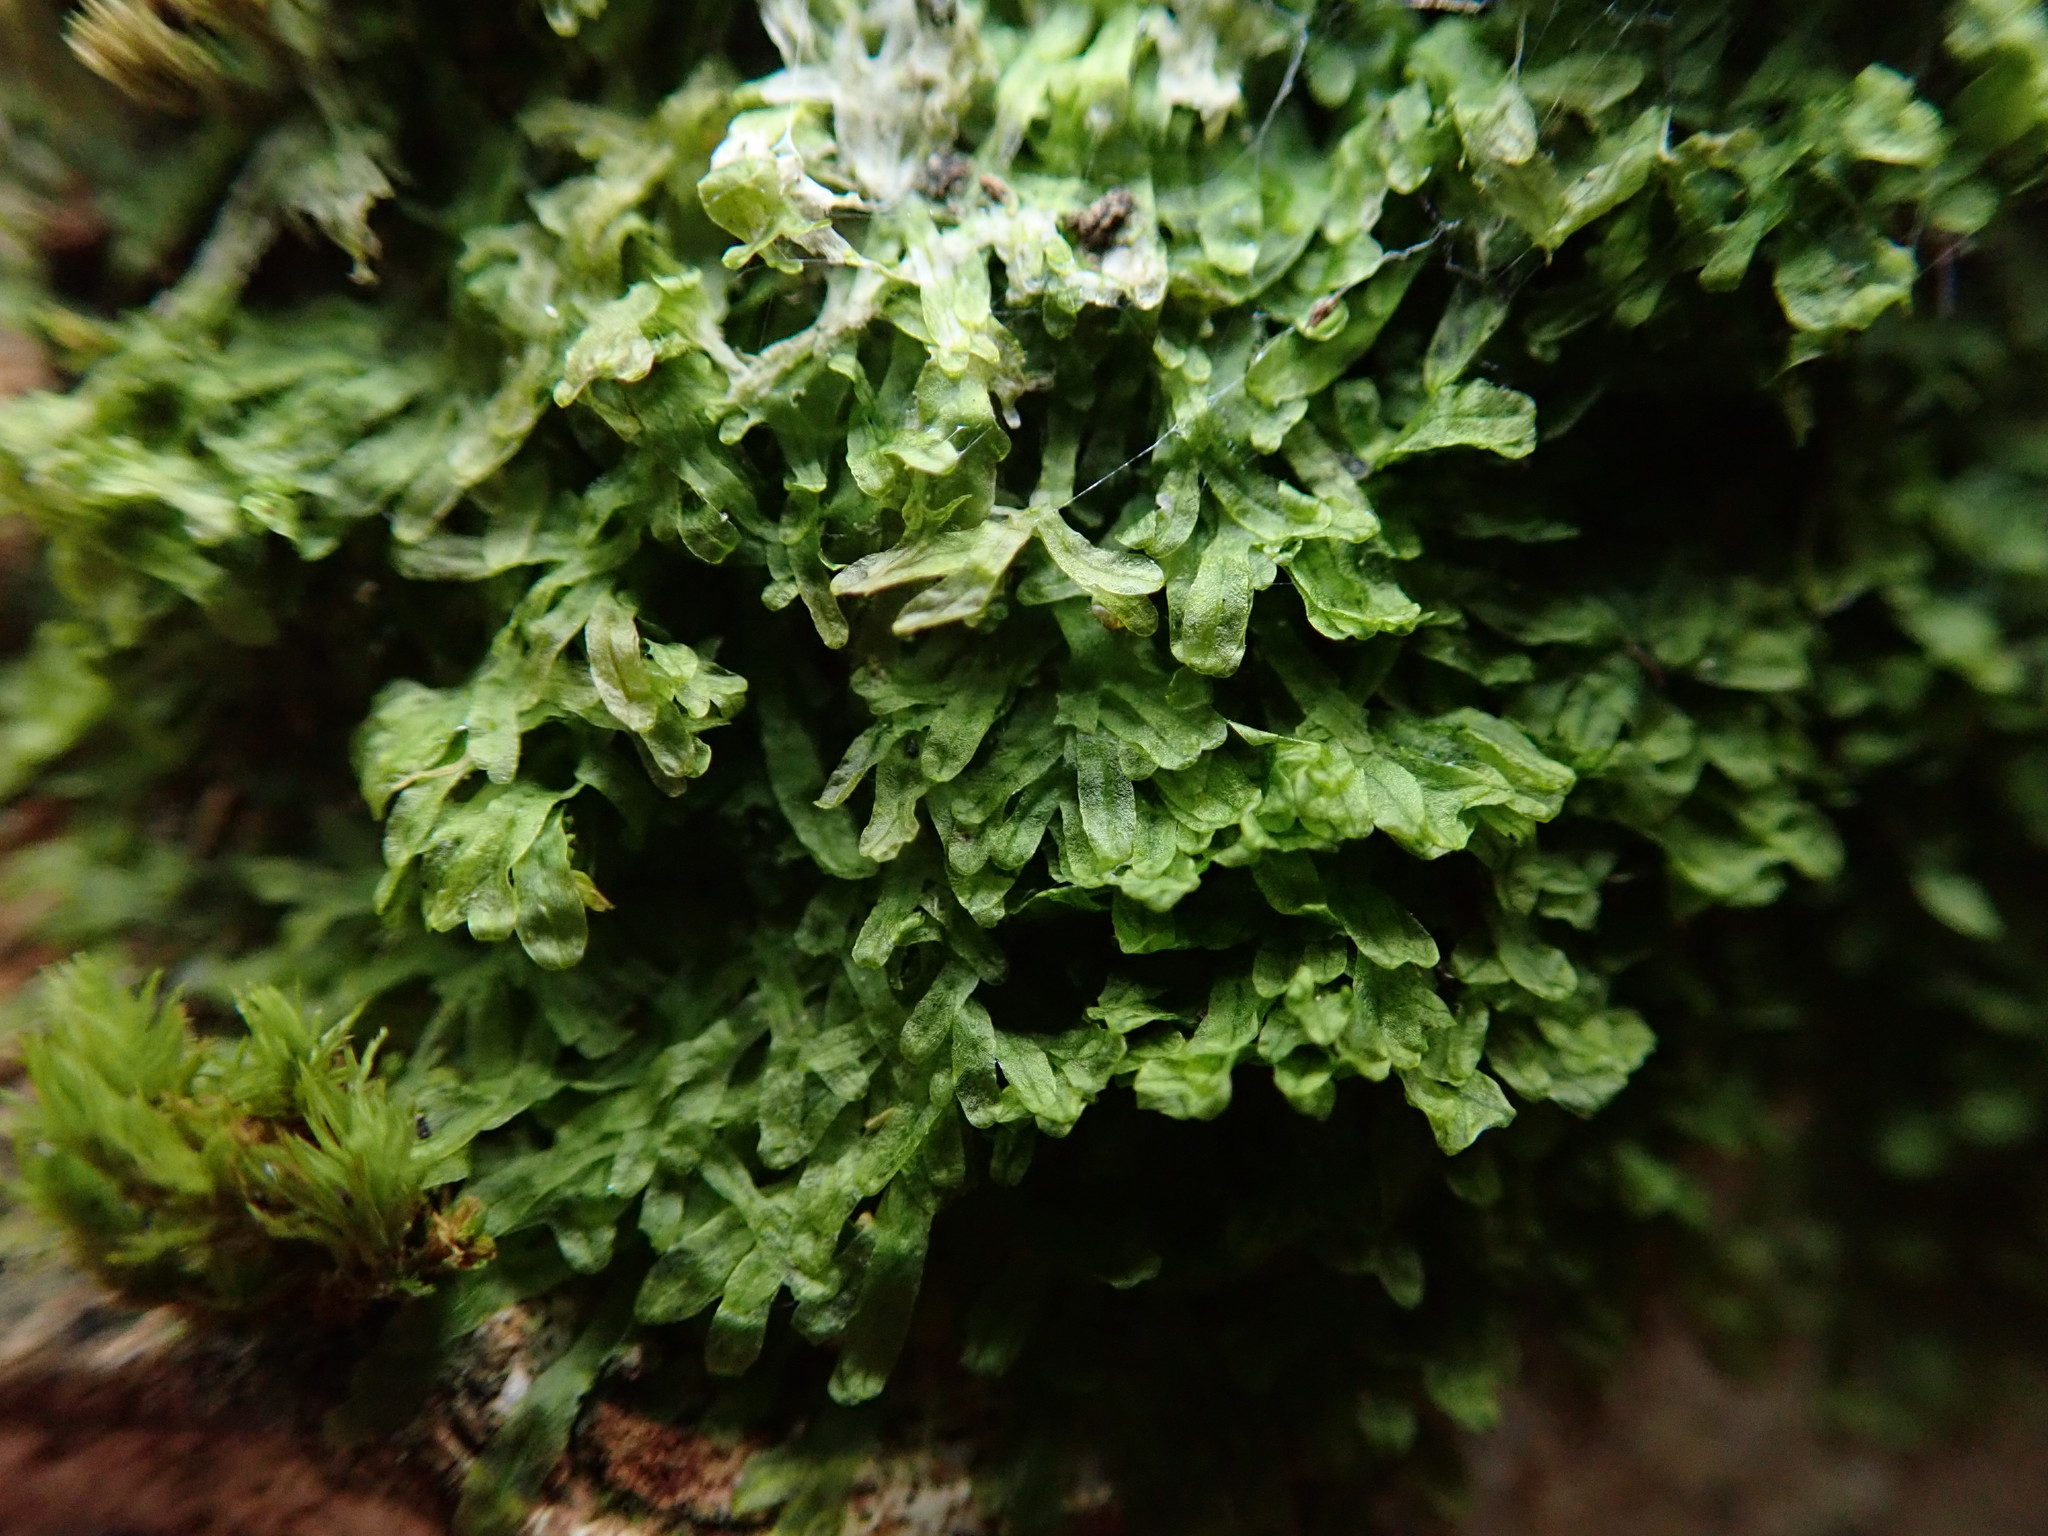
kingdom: Plantae
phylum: Marchantiophyta
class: Jungermanniopsida
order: Metzgeriales
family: Metzgeriaceae
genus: Metzgeria
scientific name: Metzgeria furcata
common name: Forked veilwort
